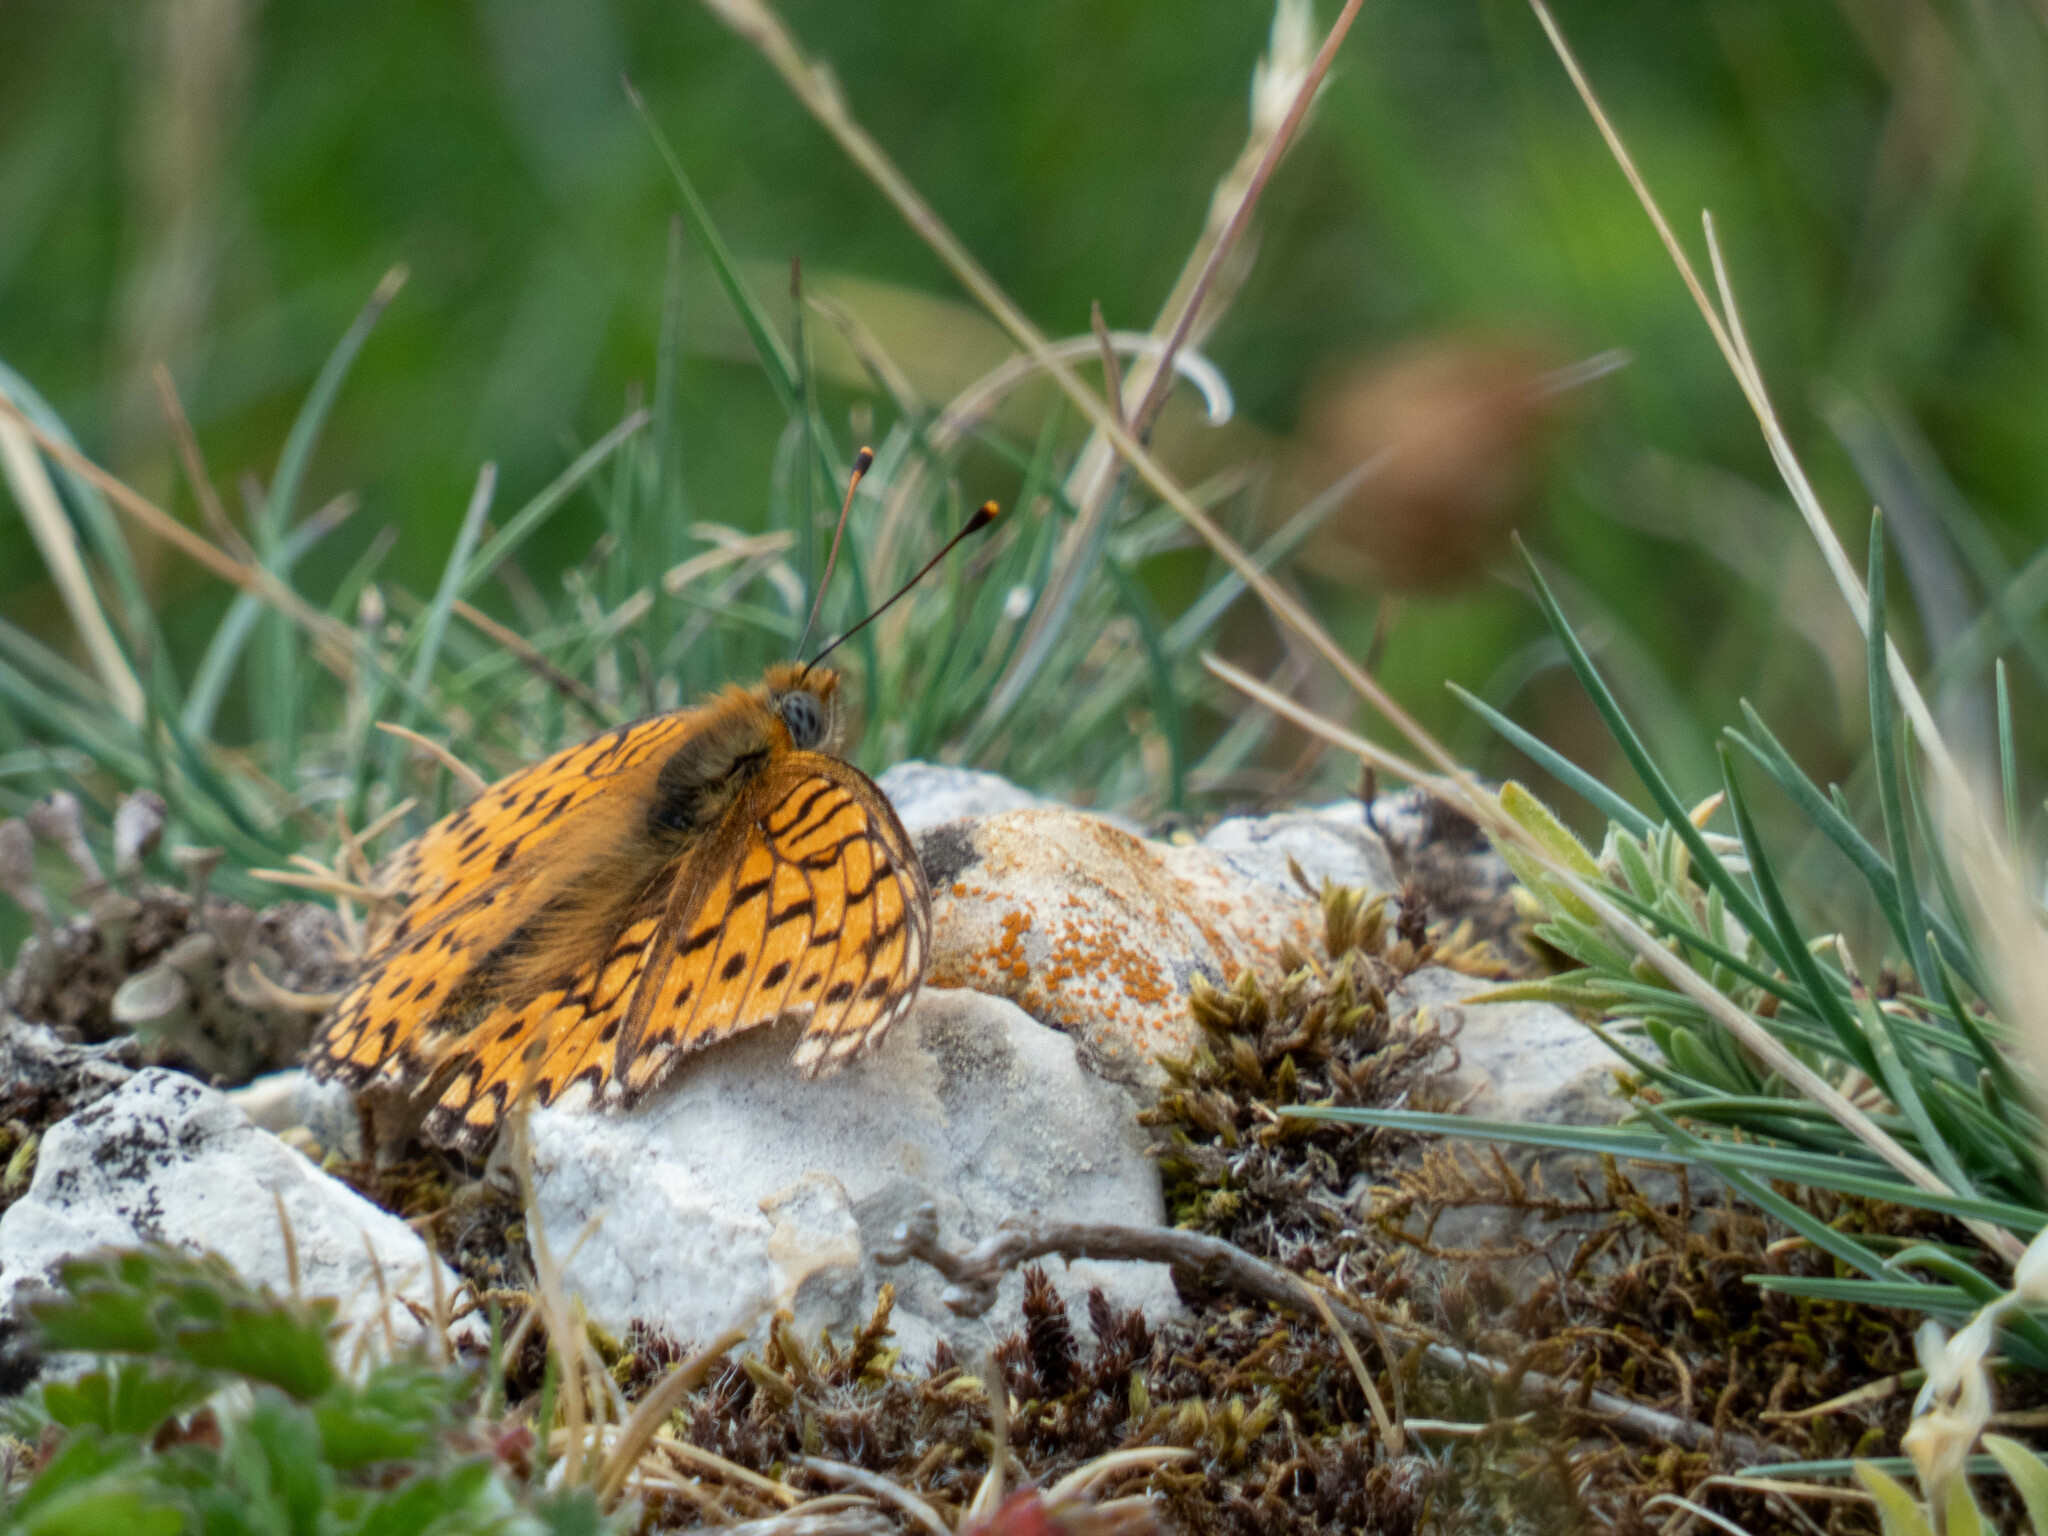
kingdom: Animalia
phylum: Arthropoda
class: Insecta
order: Lepidoptera
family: Nymphalidae
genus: Fabriciana
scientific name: Fabriciana niobe
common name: Niobe fritillary
